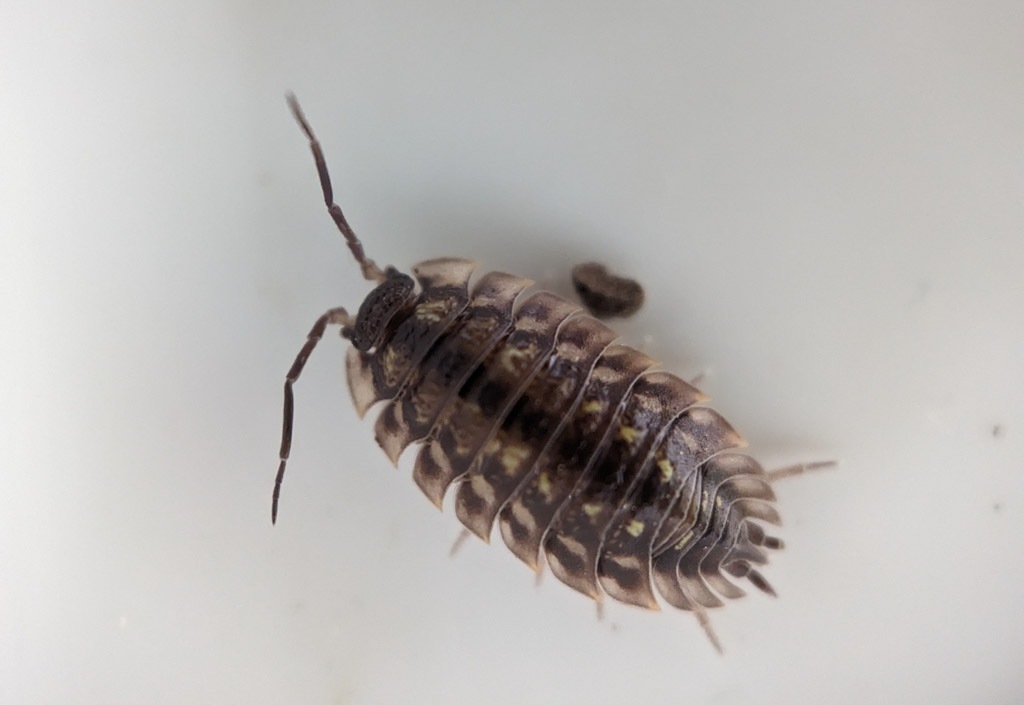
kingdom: Animalia
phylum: Arthropoda
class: Malacostraca
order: Isopoda
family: Oniscidae
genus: Oniscus
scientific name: Oniscus asellus
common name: Common shiny woodlouse
